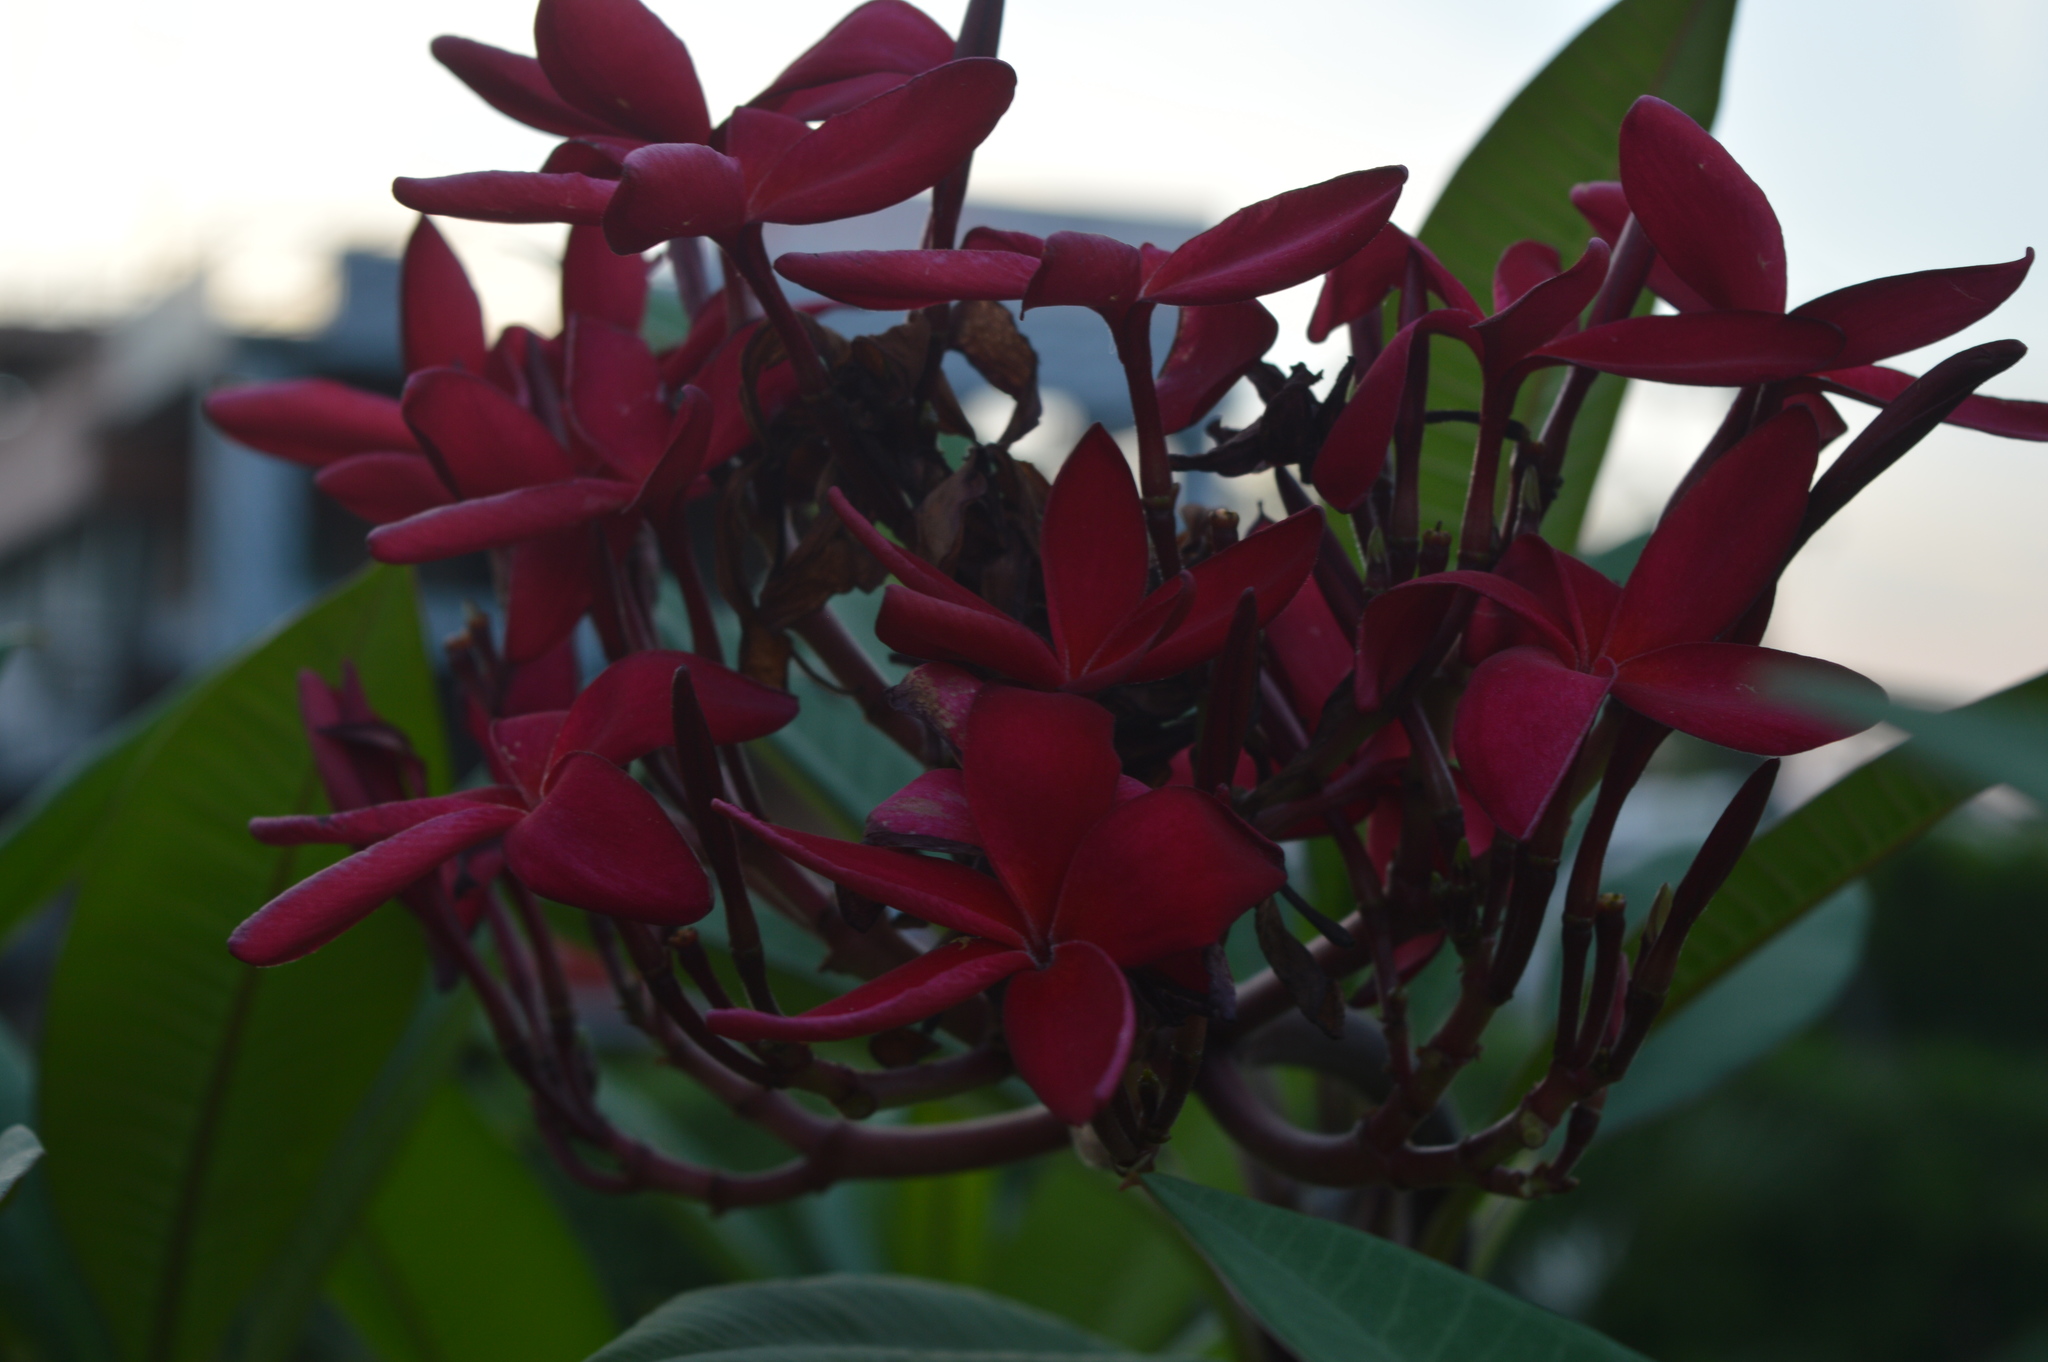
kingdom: Plantae
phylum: Tracheophyta
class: Magnoliopsida
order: Gentianales
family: Apocynaceae
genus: Plumeria
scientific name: Plumeria rubra
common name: Pagoda-tree
